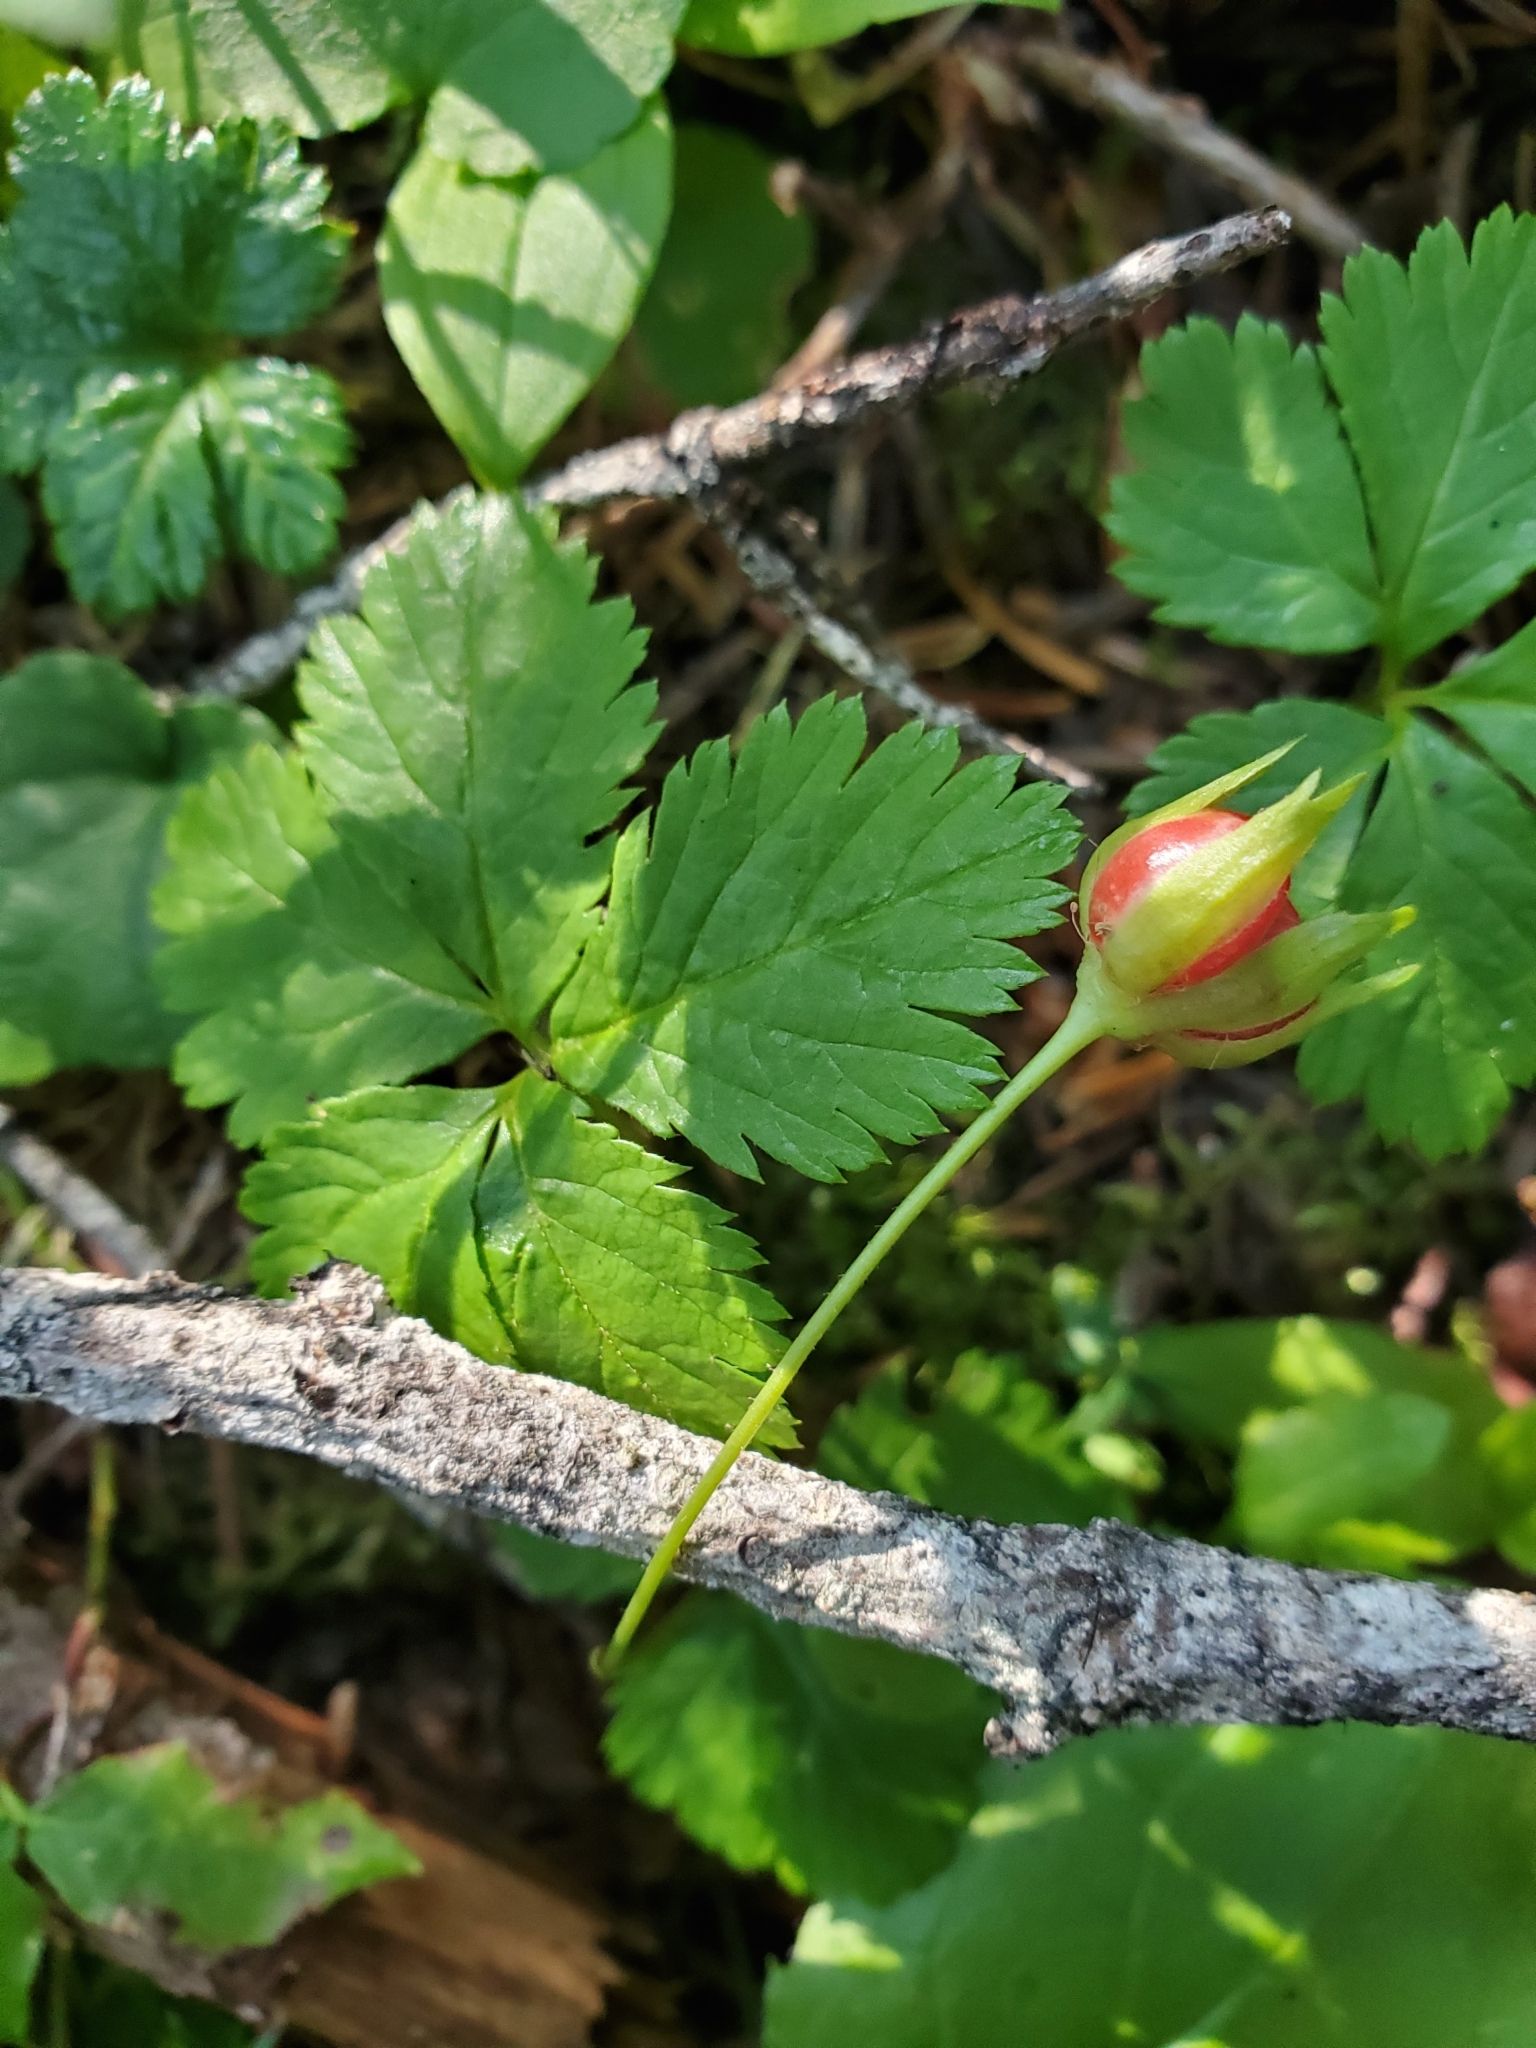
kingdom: Plantae
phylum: Tracheophyta
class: Magnoliopsida
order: Rosales
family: Rosaceae
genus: Rubus
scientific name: Rubus pedatus
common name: Creeping raspberry
